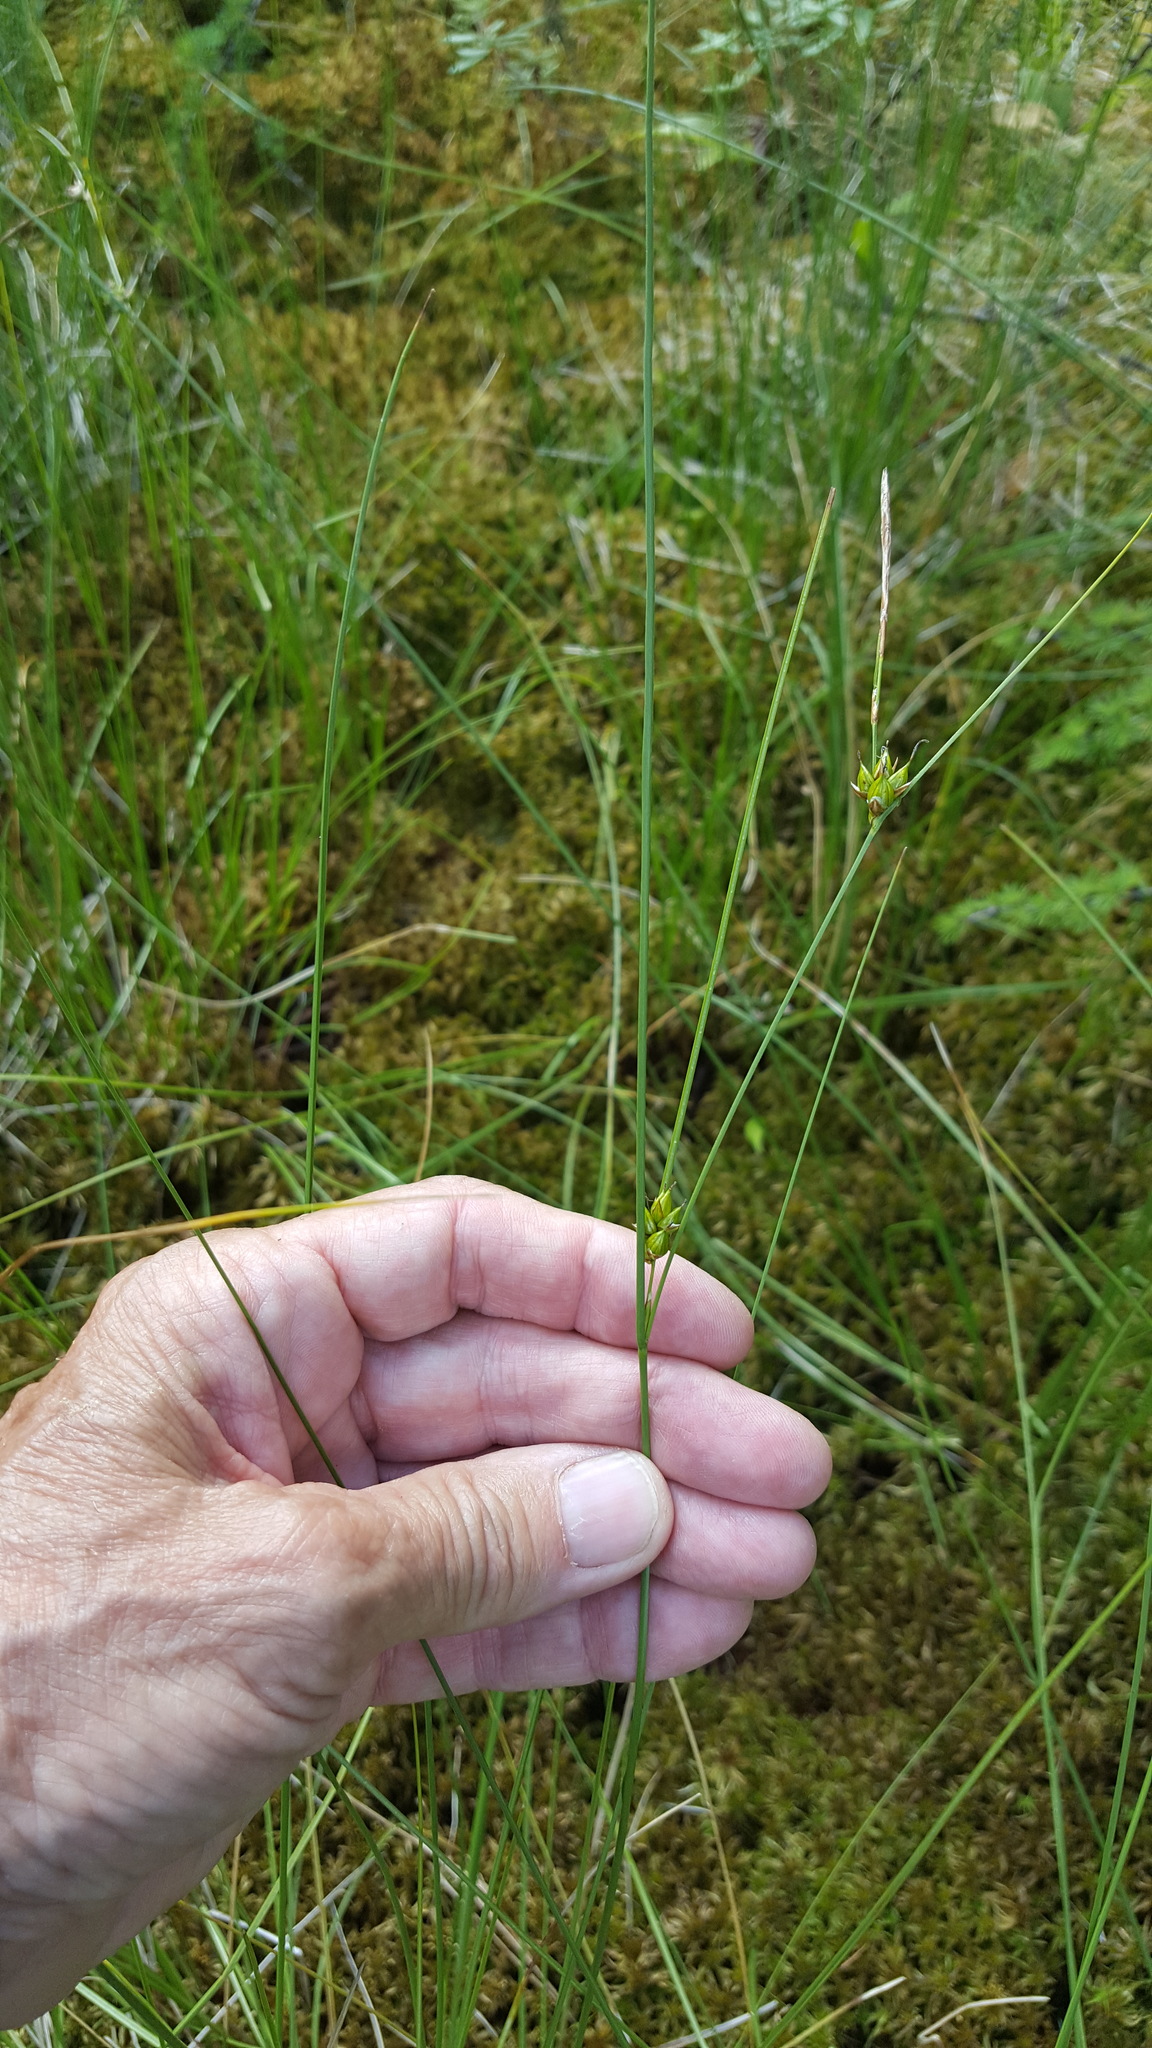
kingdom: Plantae
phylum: Tracheophyta
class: Liliopsida
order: Poales
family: Cyperaceae
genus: Carex
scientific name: Carex oligosperma
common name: Few-seed sedge
